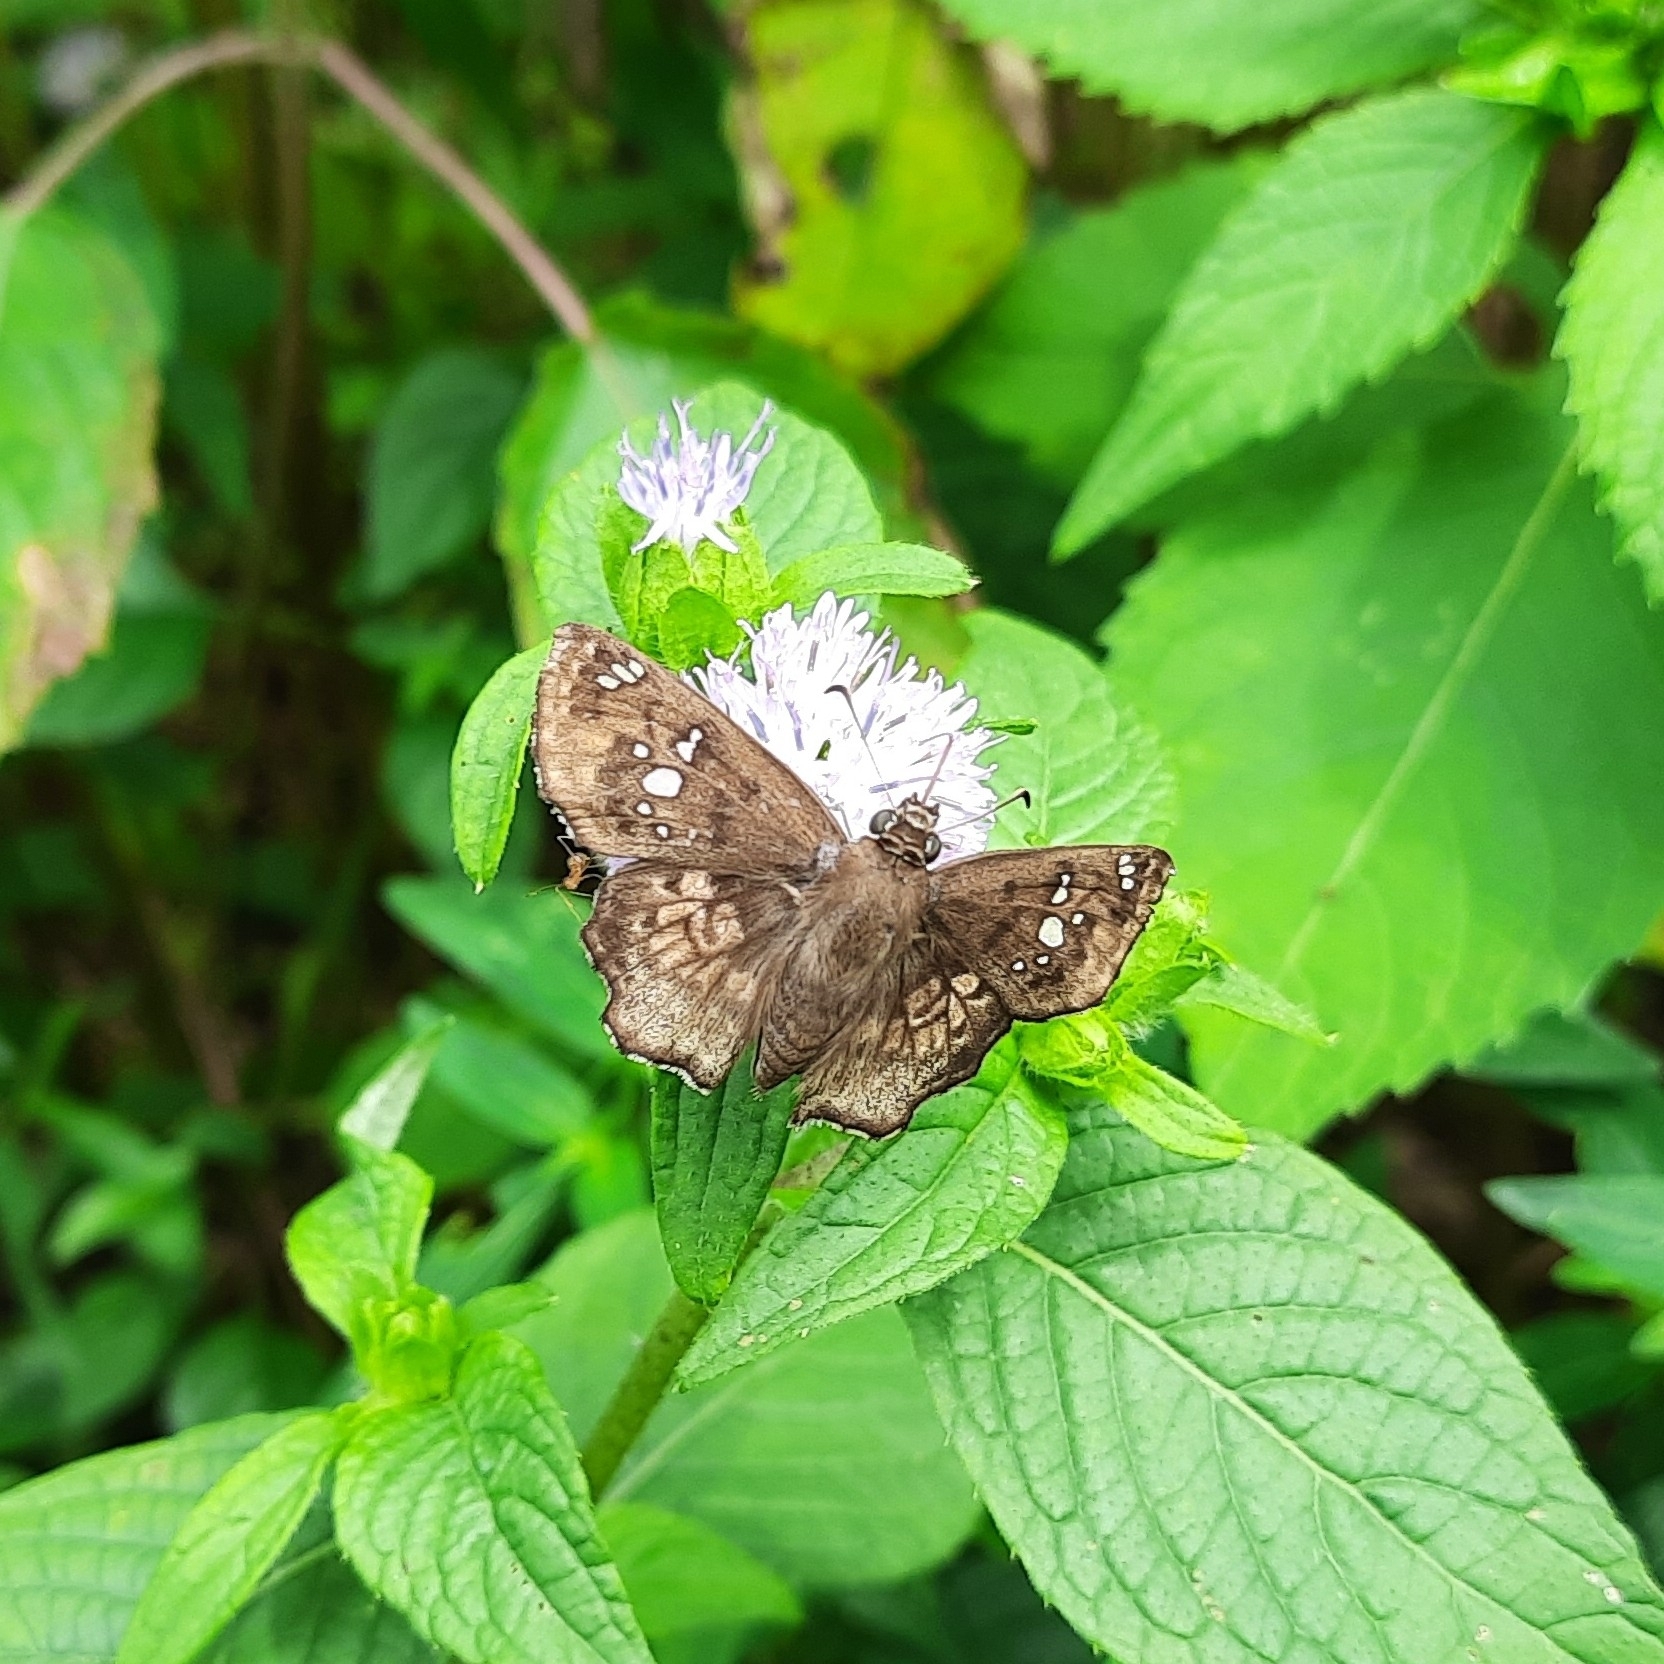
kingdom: Animalia
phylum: Arthropoda
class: Insecta
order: Lepidoptera
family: Hesperiidae
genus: Caprona
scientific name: Caprona ransonnettii
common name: Golden angle
